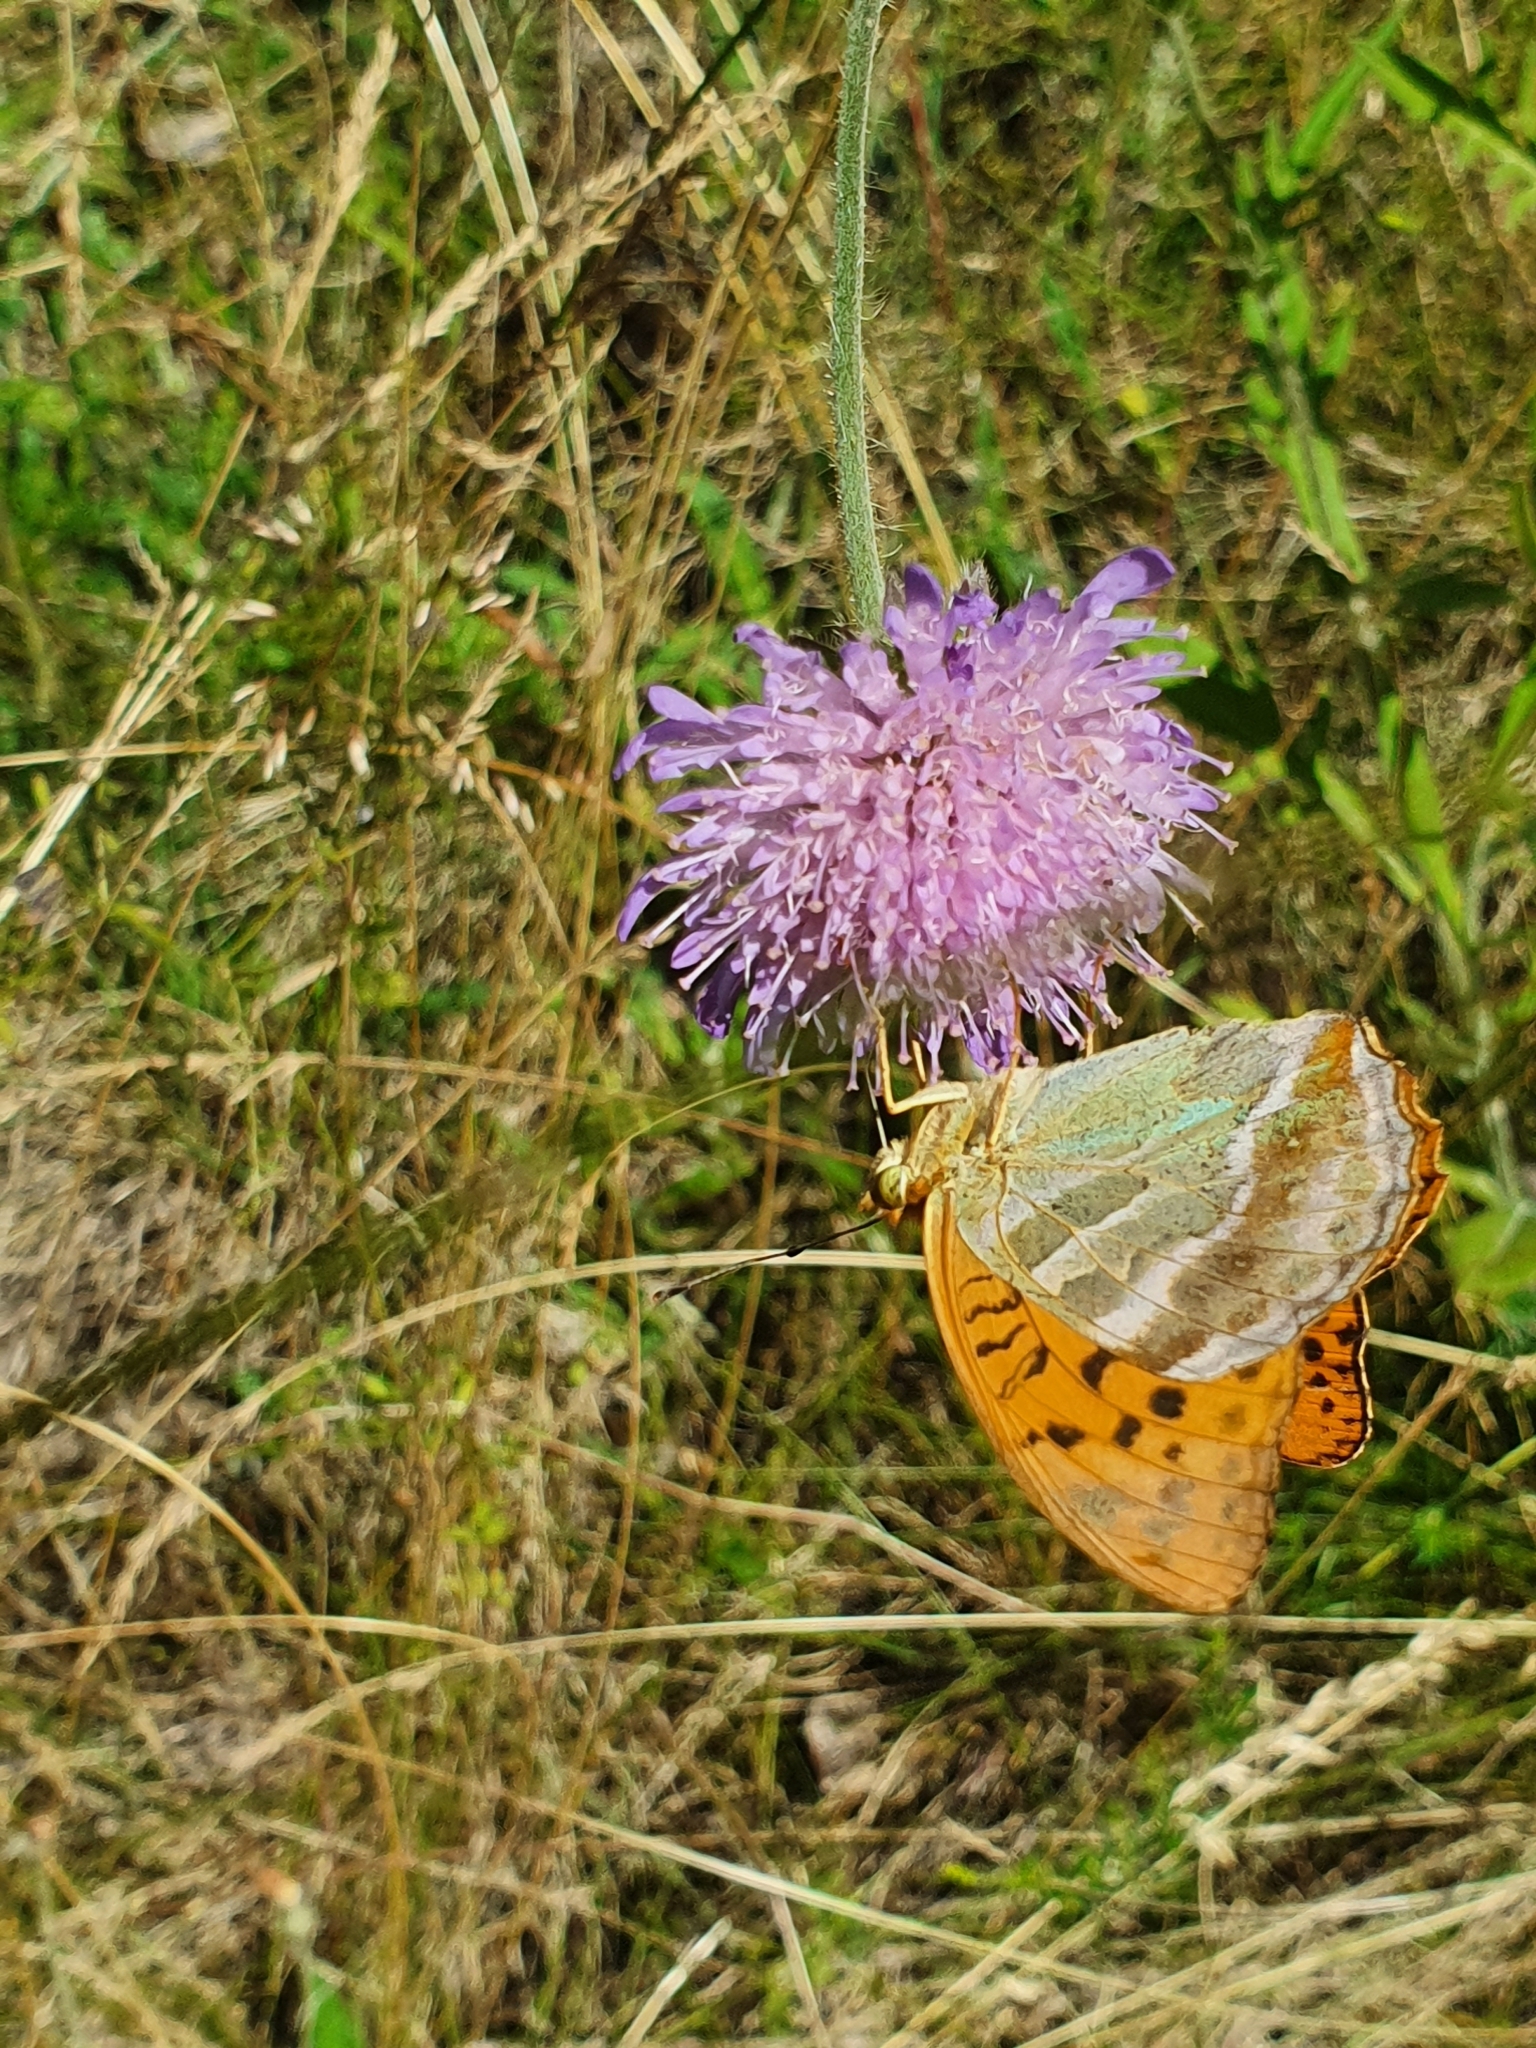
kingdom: Animalia
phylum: Arthropoda
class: Insecta
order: Lepidoptera
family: Nymphalidae
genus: Argynnis
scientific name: Argynnis paphia
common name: Silver-washed fritillary
